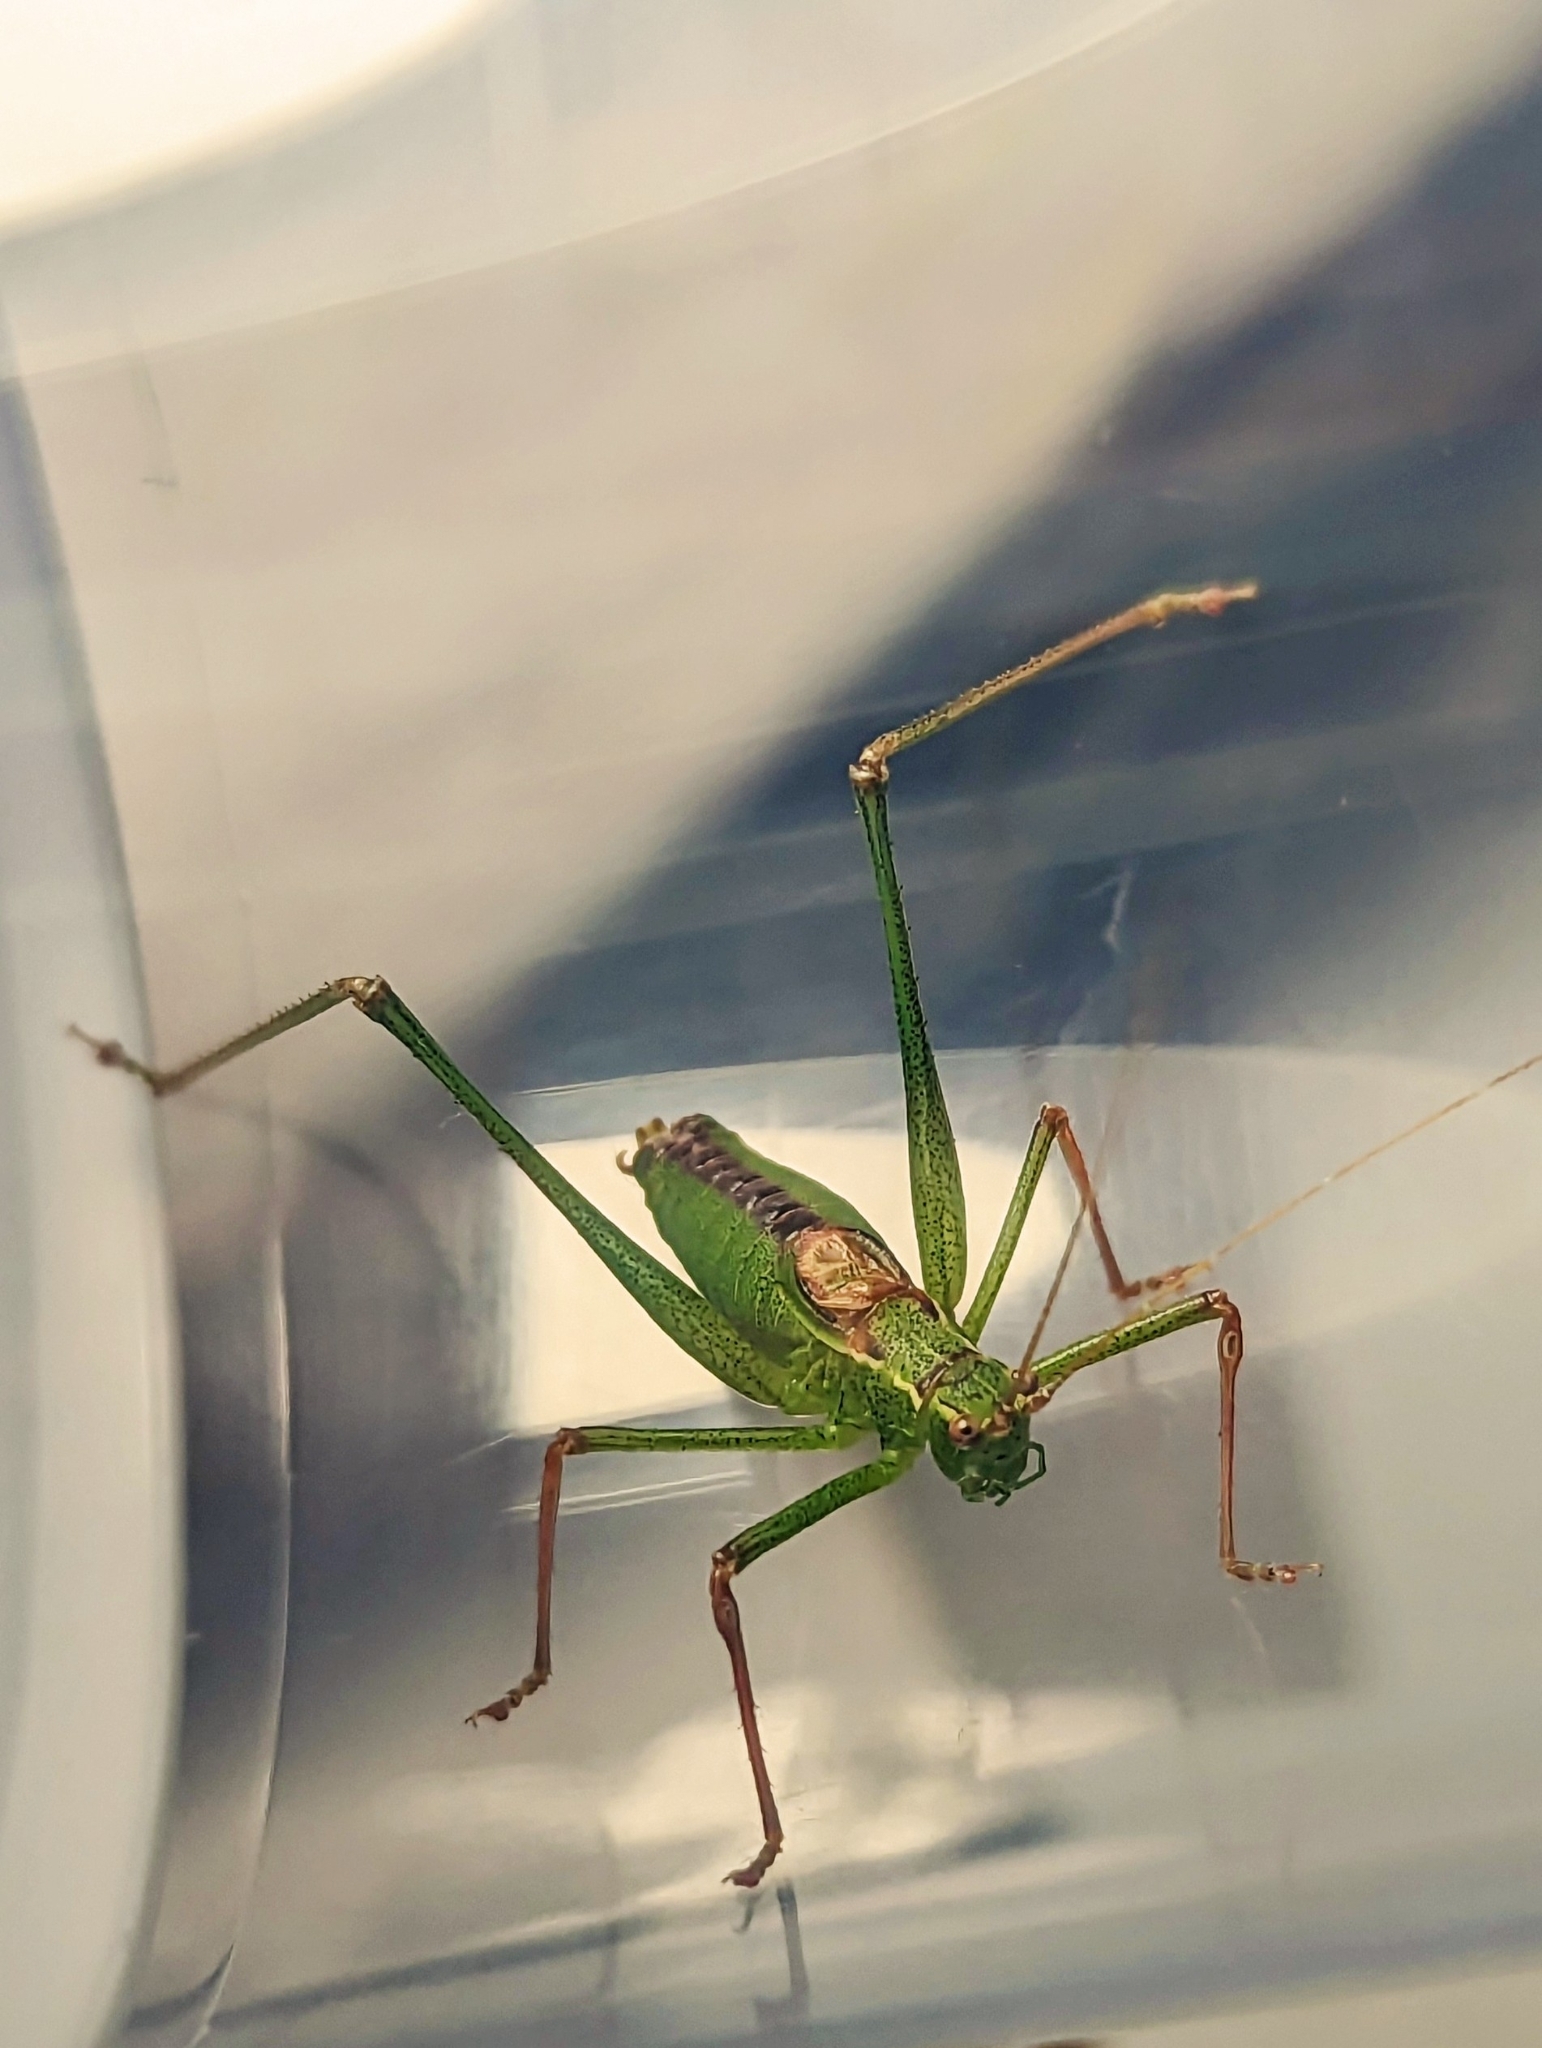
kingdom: Animalia
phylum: Arthropoda
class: Insecta
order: Orthoptera
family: Tettigoniidae
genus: Leptophyes
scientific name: Leptophyes punctatissima
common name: Speckled bush-cricket
